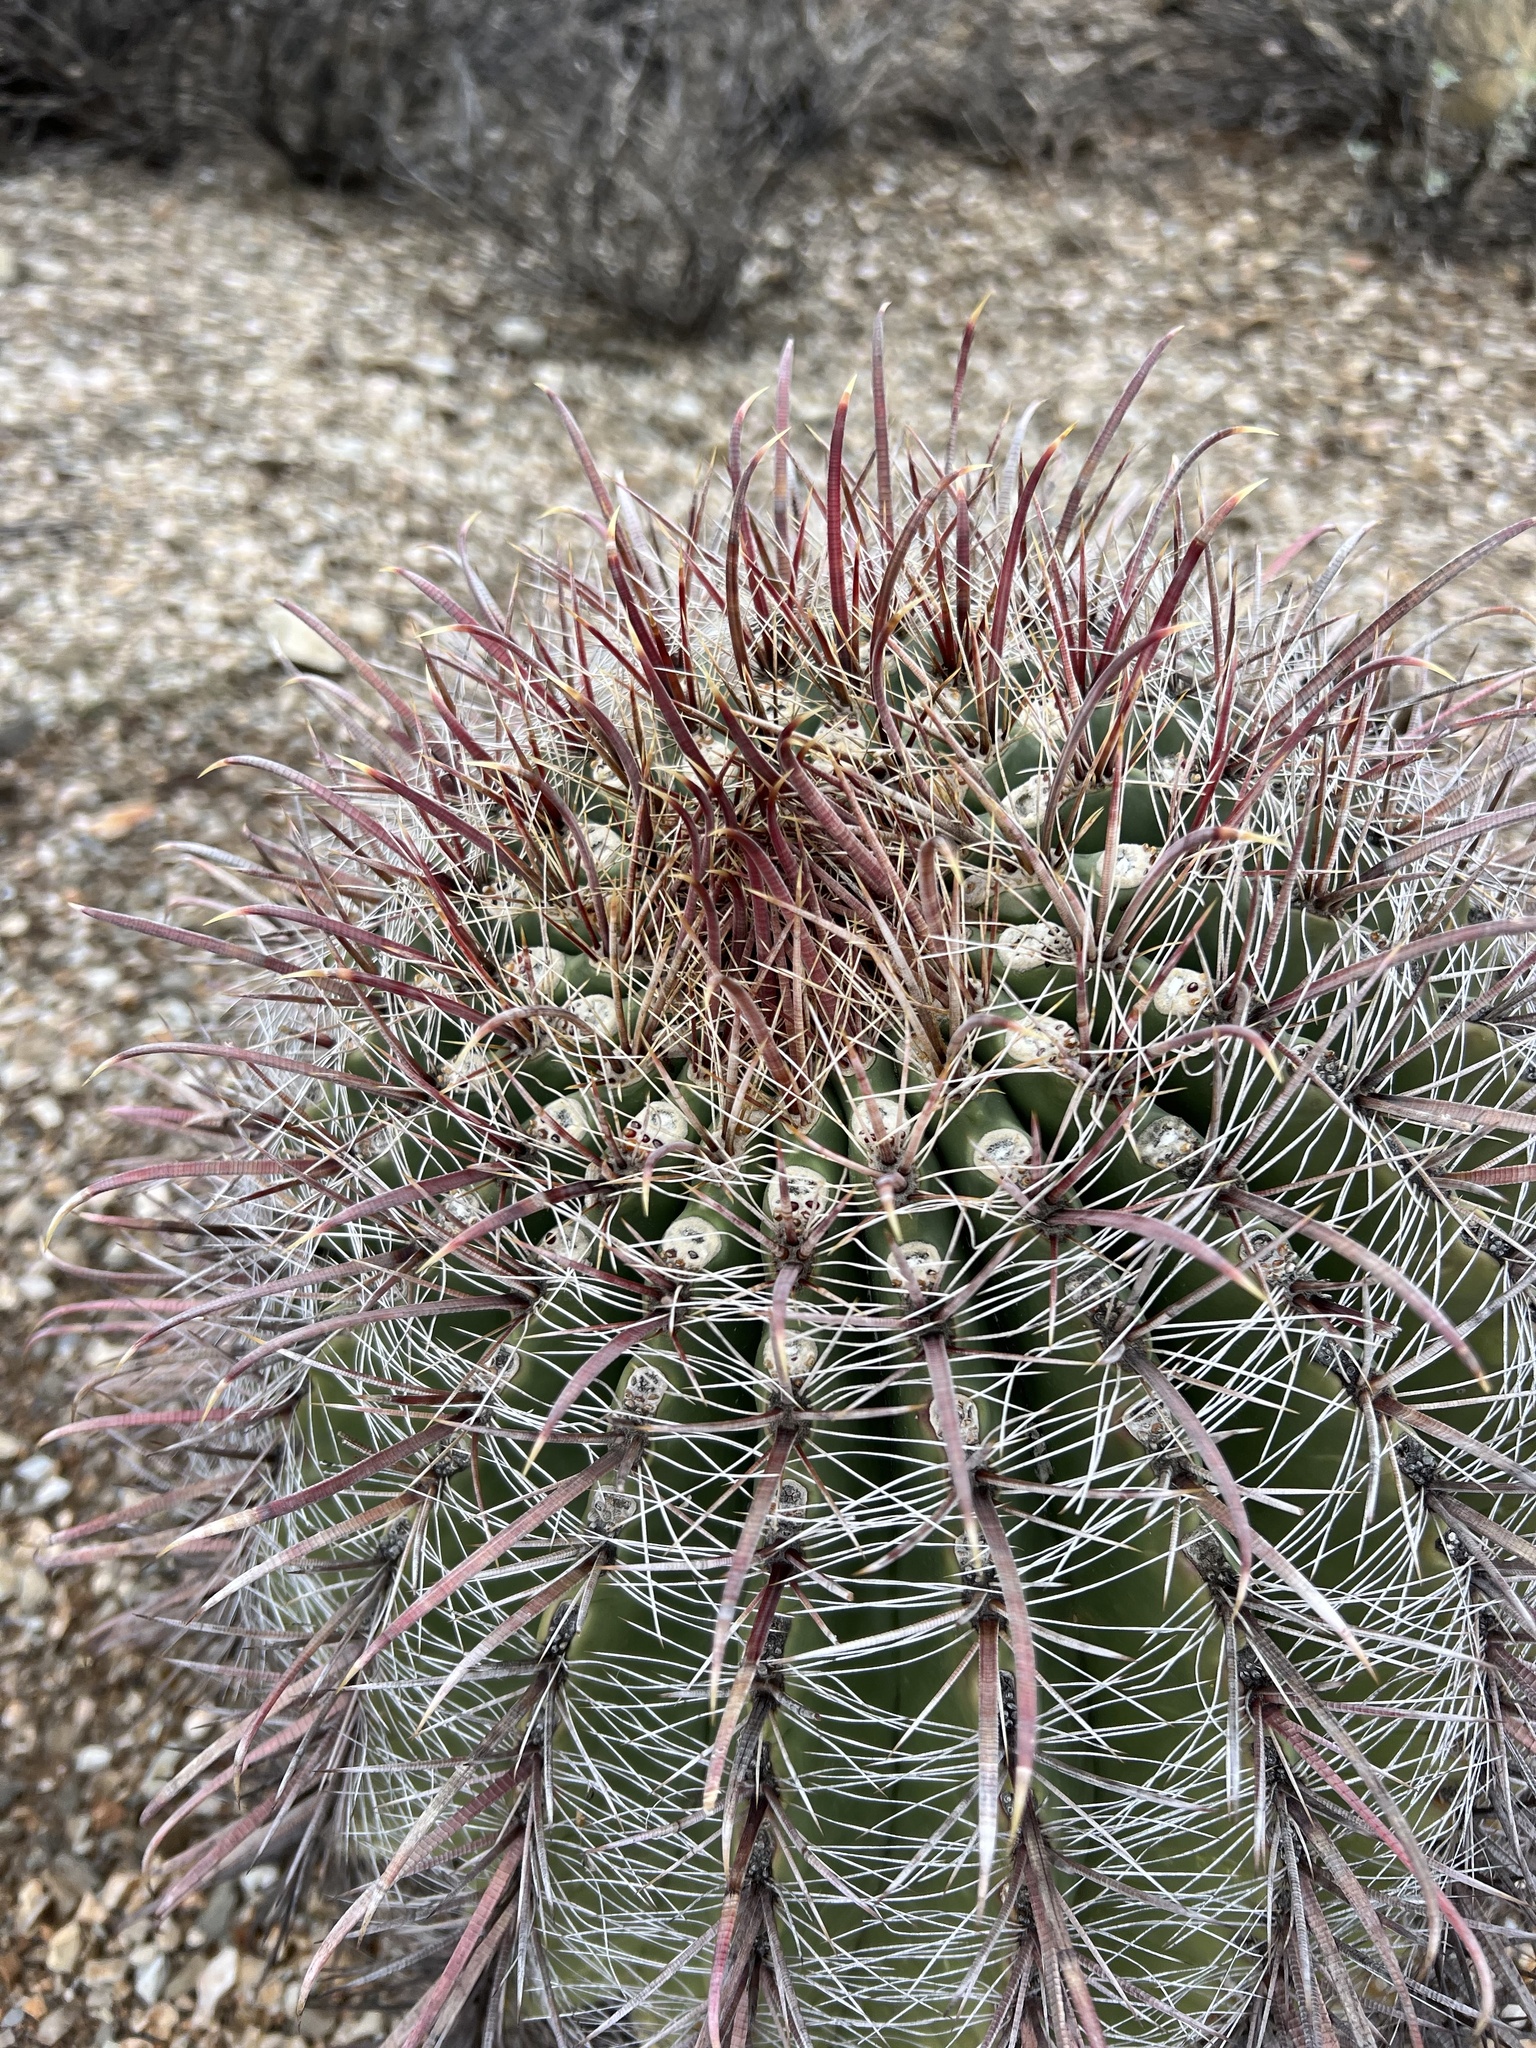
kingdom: Plantae
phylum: Tracheophyta
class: Magnoliopsida
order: Caryophyllales
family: Cactaceae
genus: Ferocactus
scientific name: Ferocactus wislizeni
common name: Candy barrel cactus
